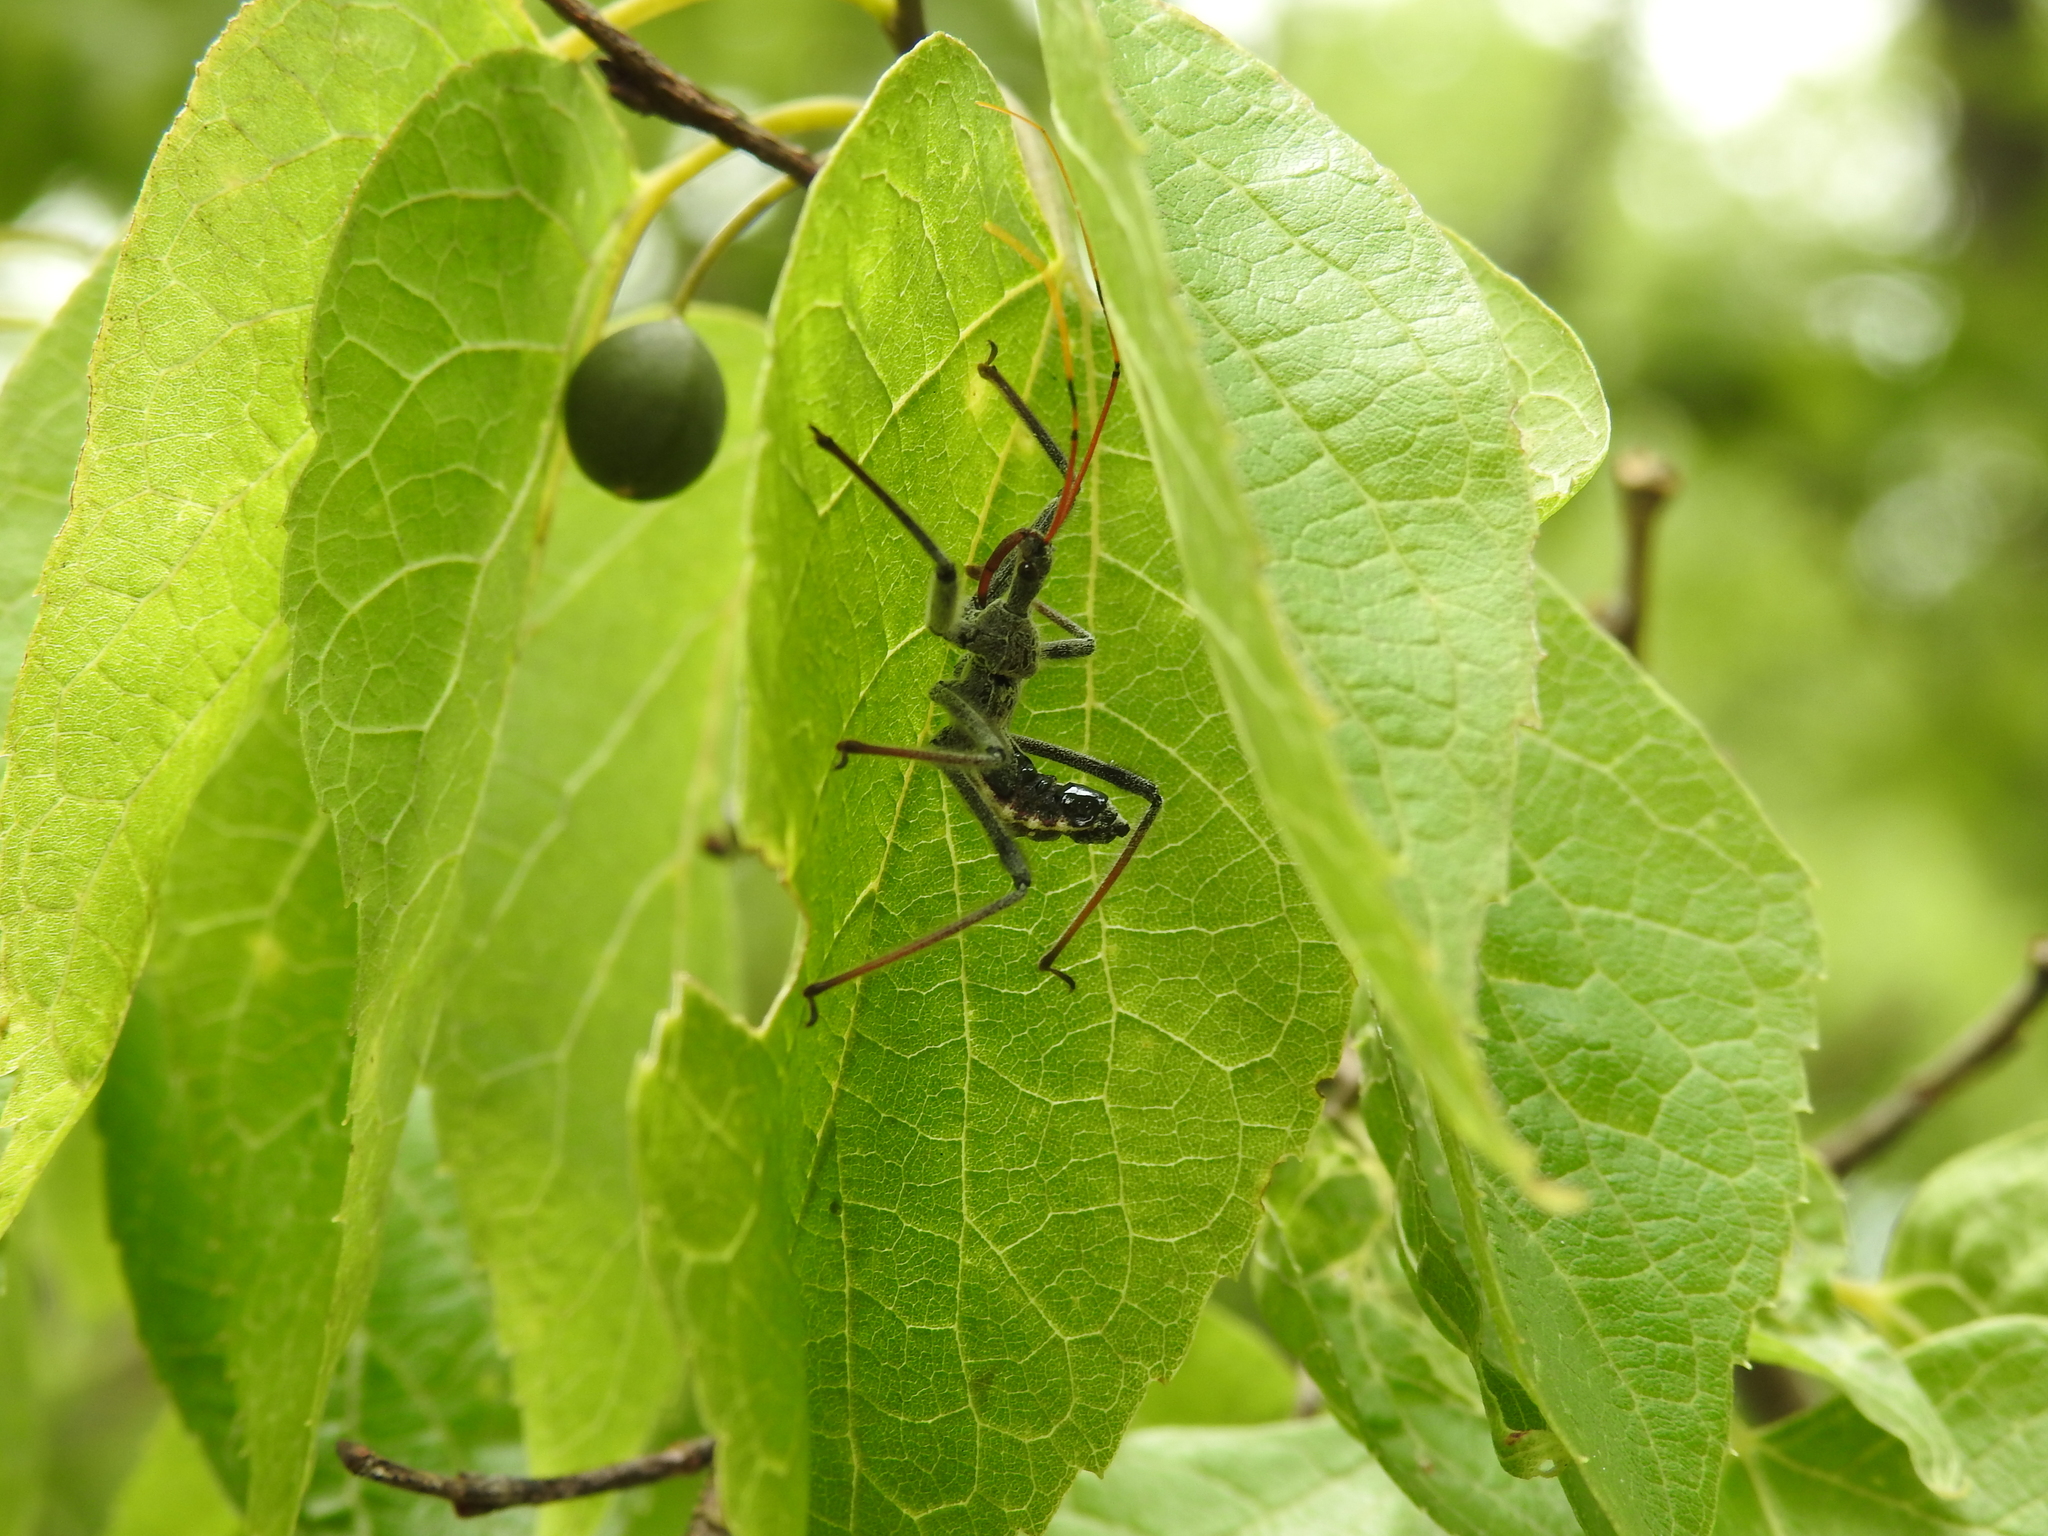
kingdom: Animalia
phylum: Arthropoda
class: Insecta
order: Hemiptera
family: Reduviidae
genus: Arilus
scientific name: Arilus cristatus
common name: North american wheel bug
